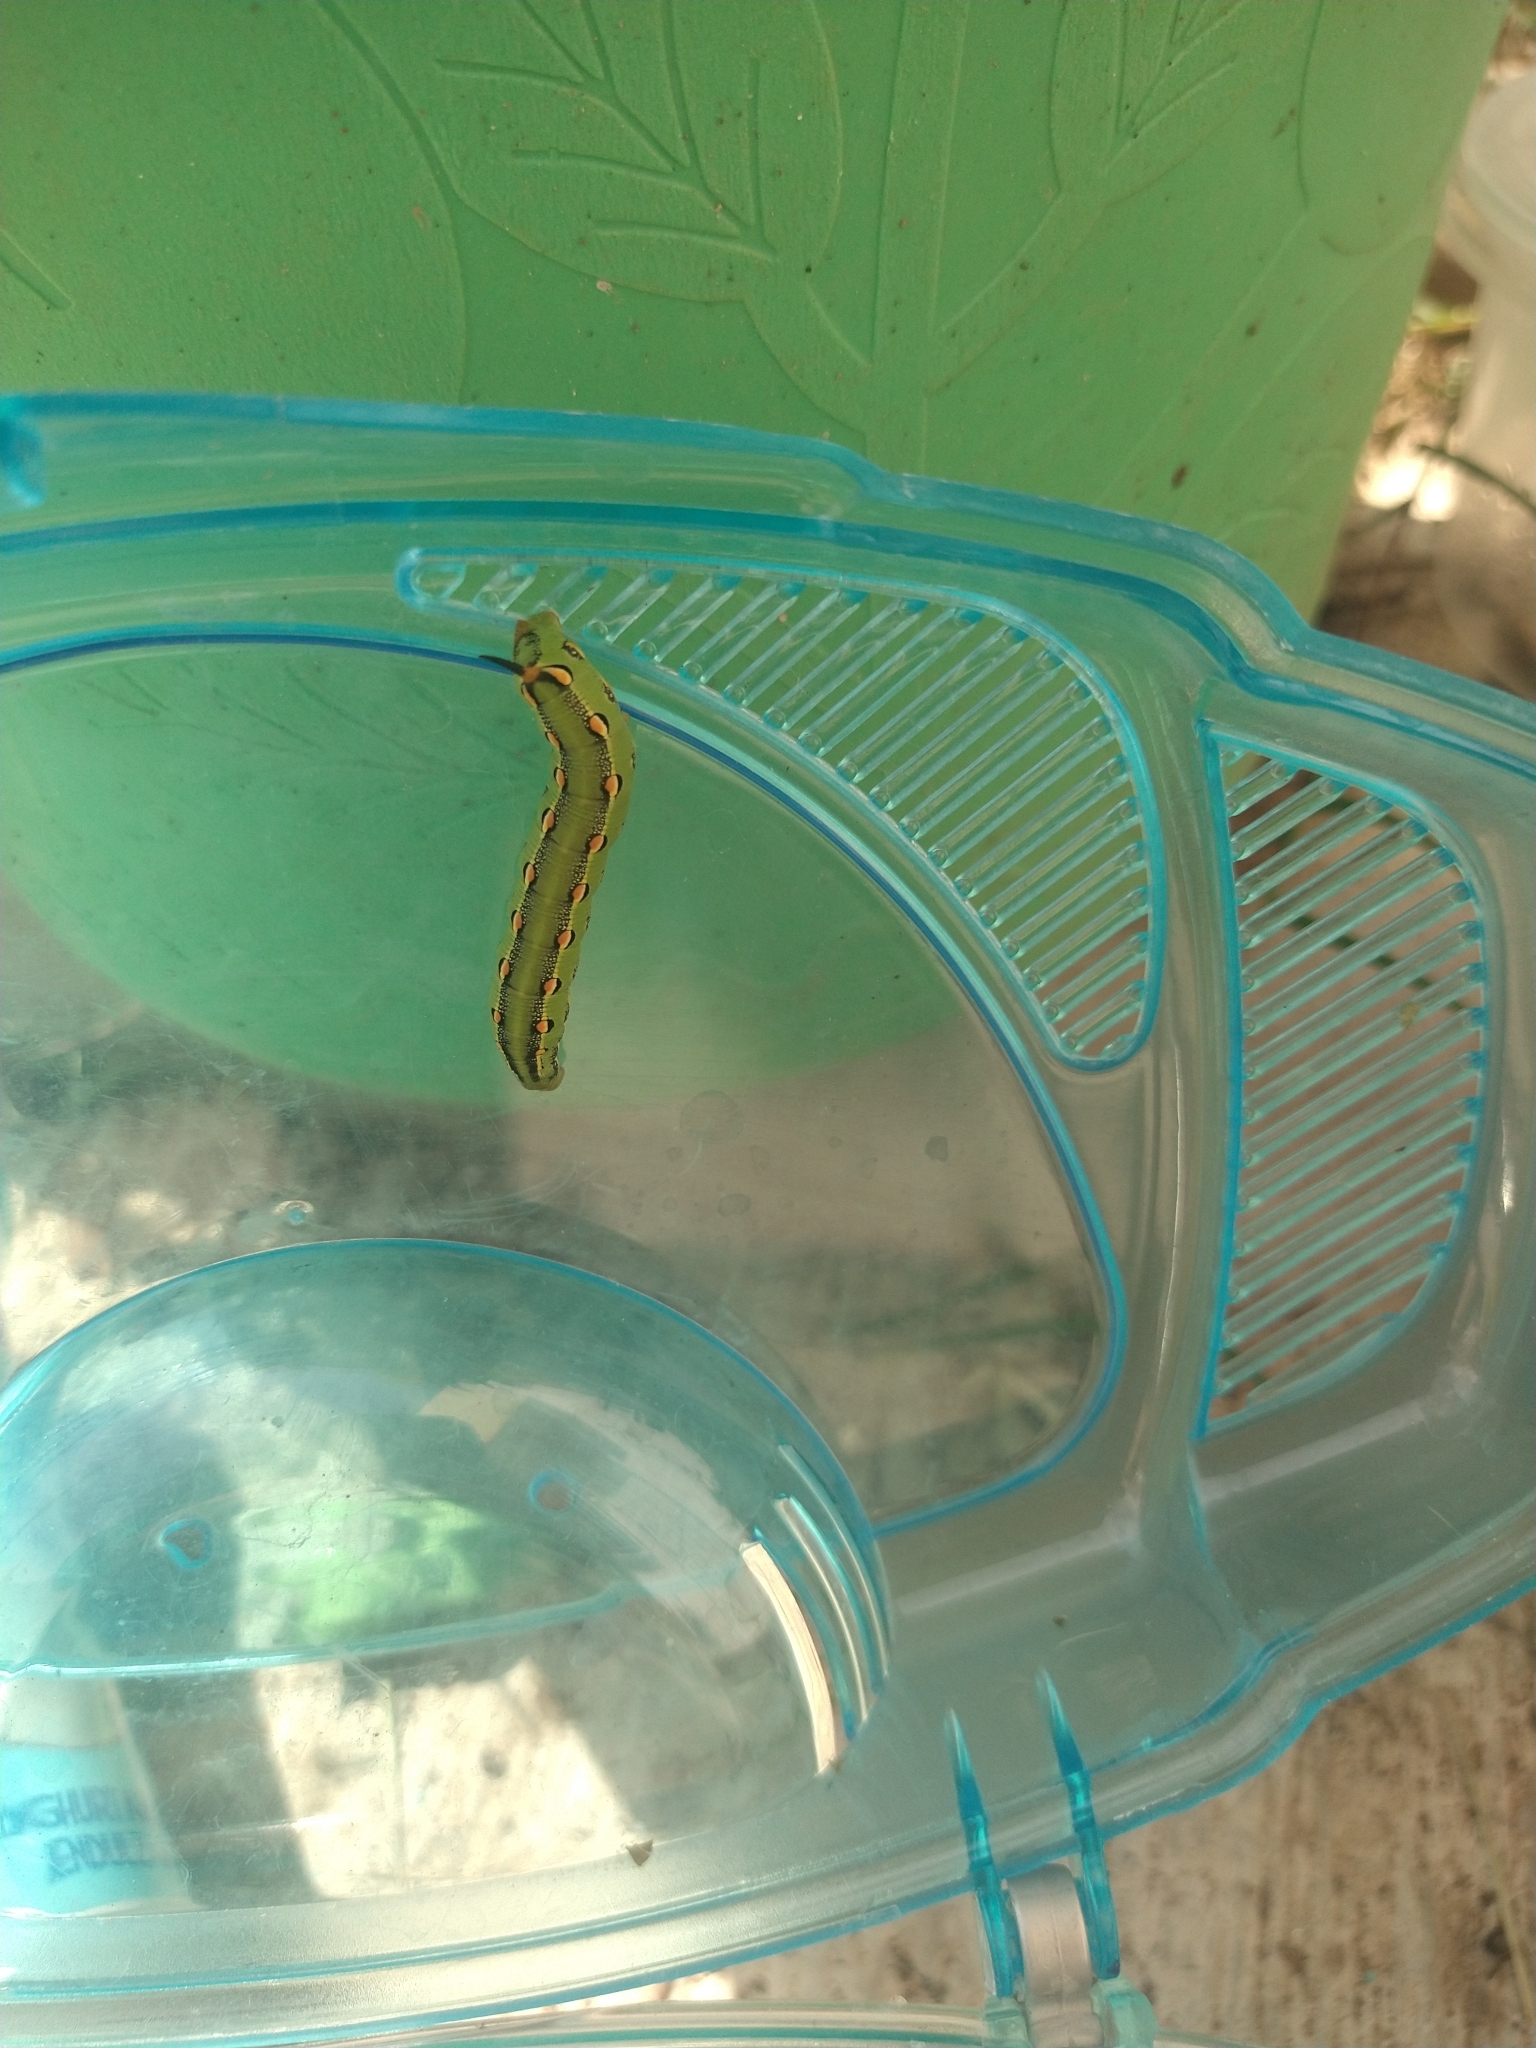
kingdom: Animalia
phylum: Arthropoda
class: Insecta
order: Lepidoptera
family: Sphingidae
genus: Hyles
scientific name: Hyles lineata
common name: White-lined sphinx
